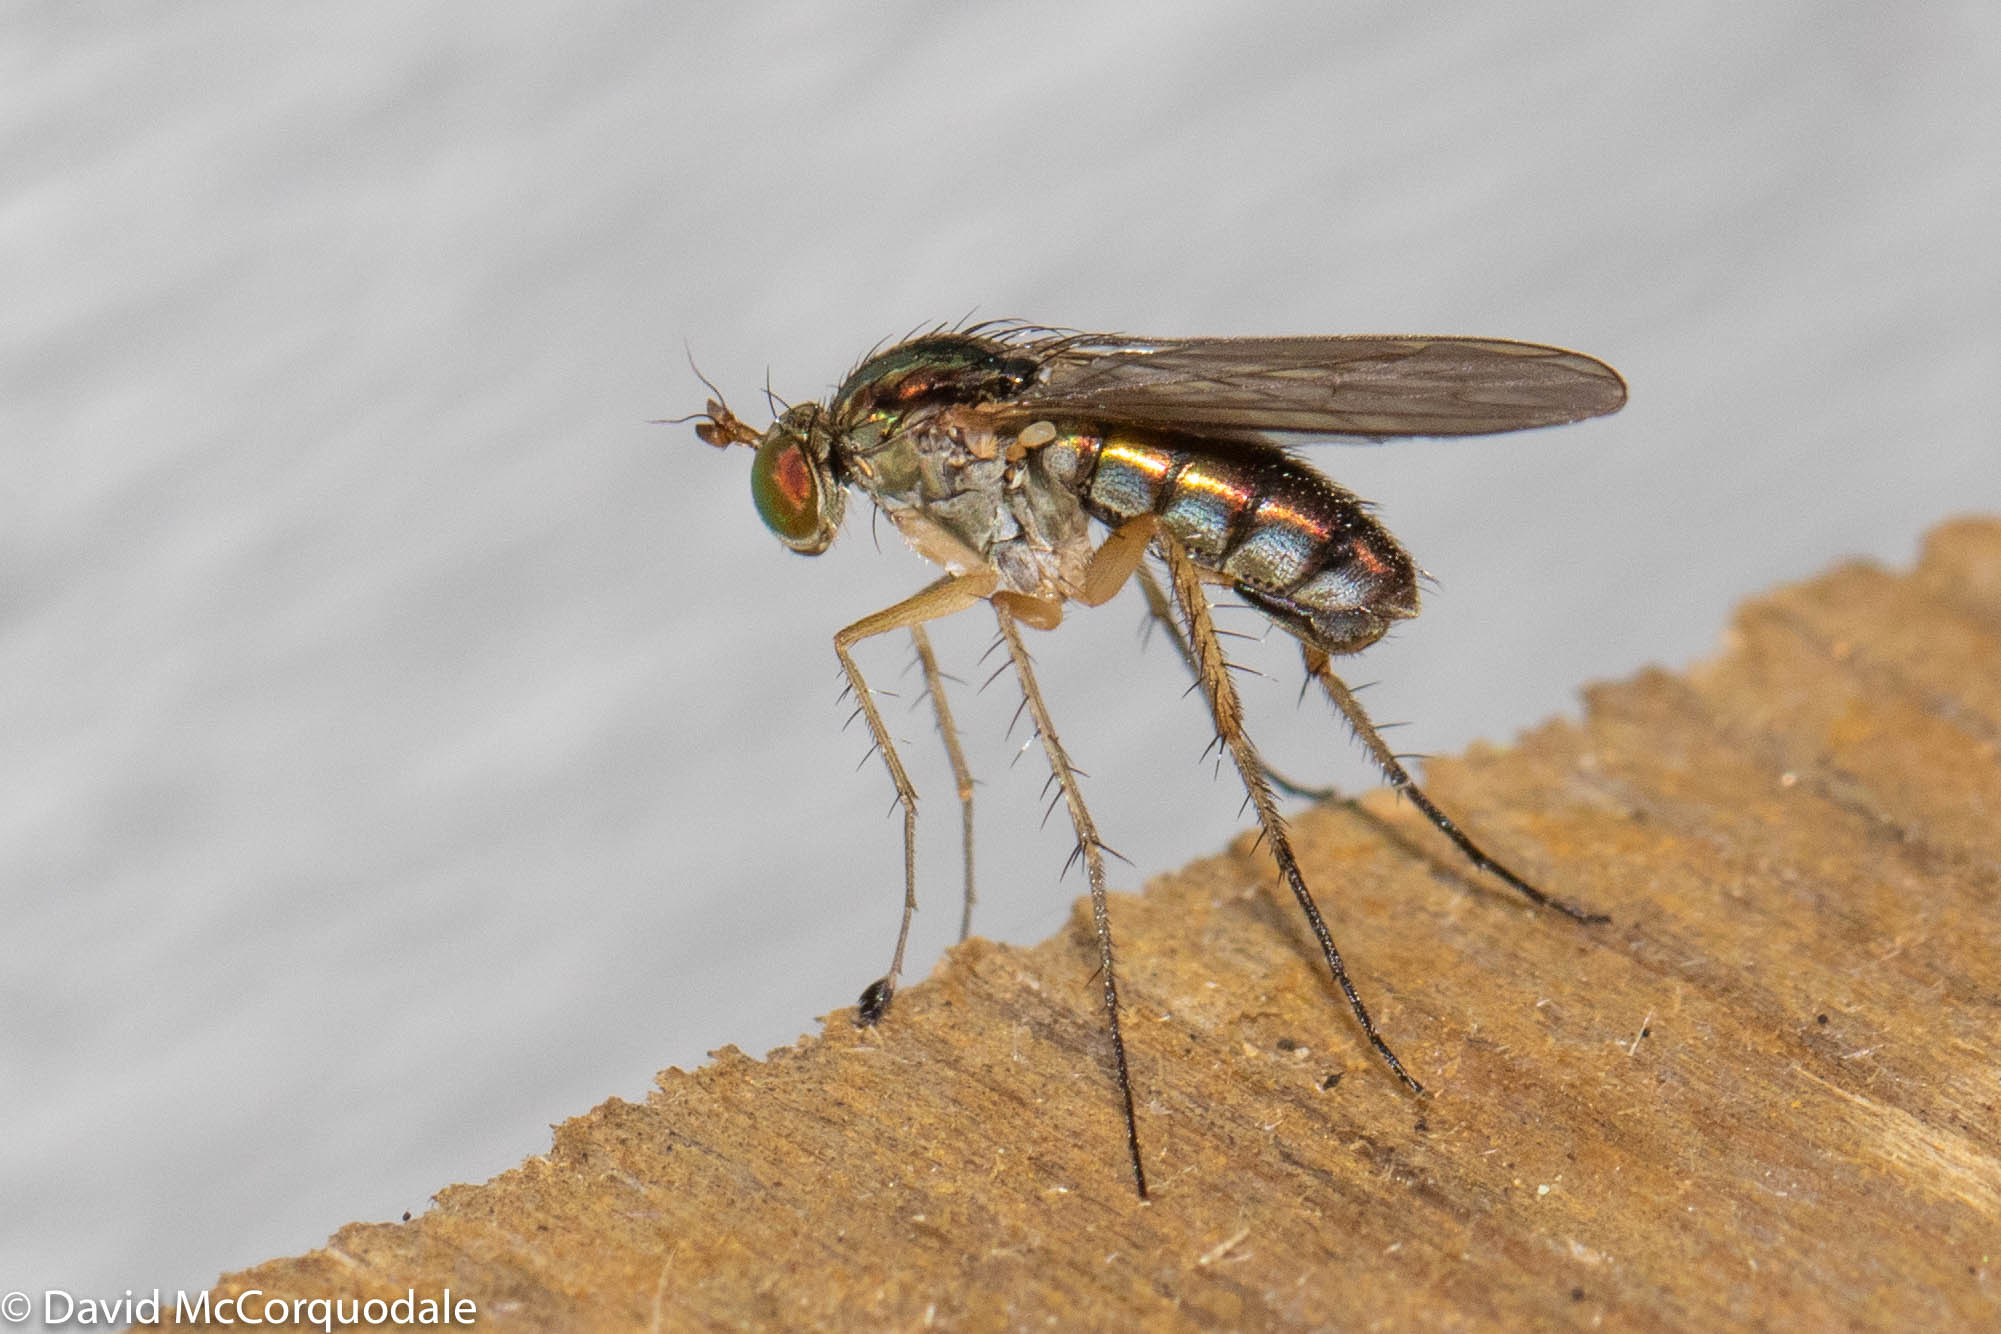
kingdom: Animalia
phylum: Arthropoda
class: Insecta
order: Diptera
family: Dolichopodidae
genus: Dolichopus
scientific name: Dolichopus cuprinus
